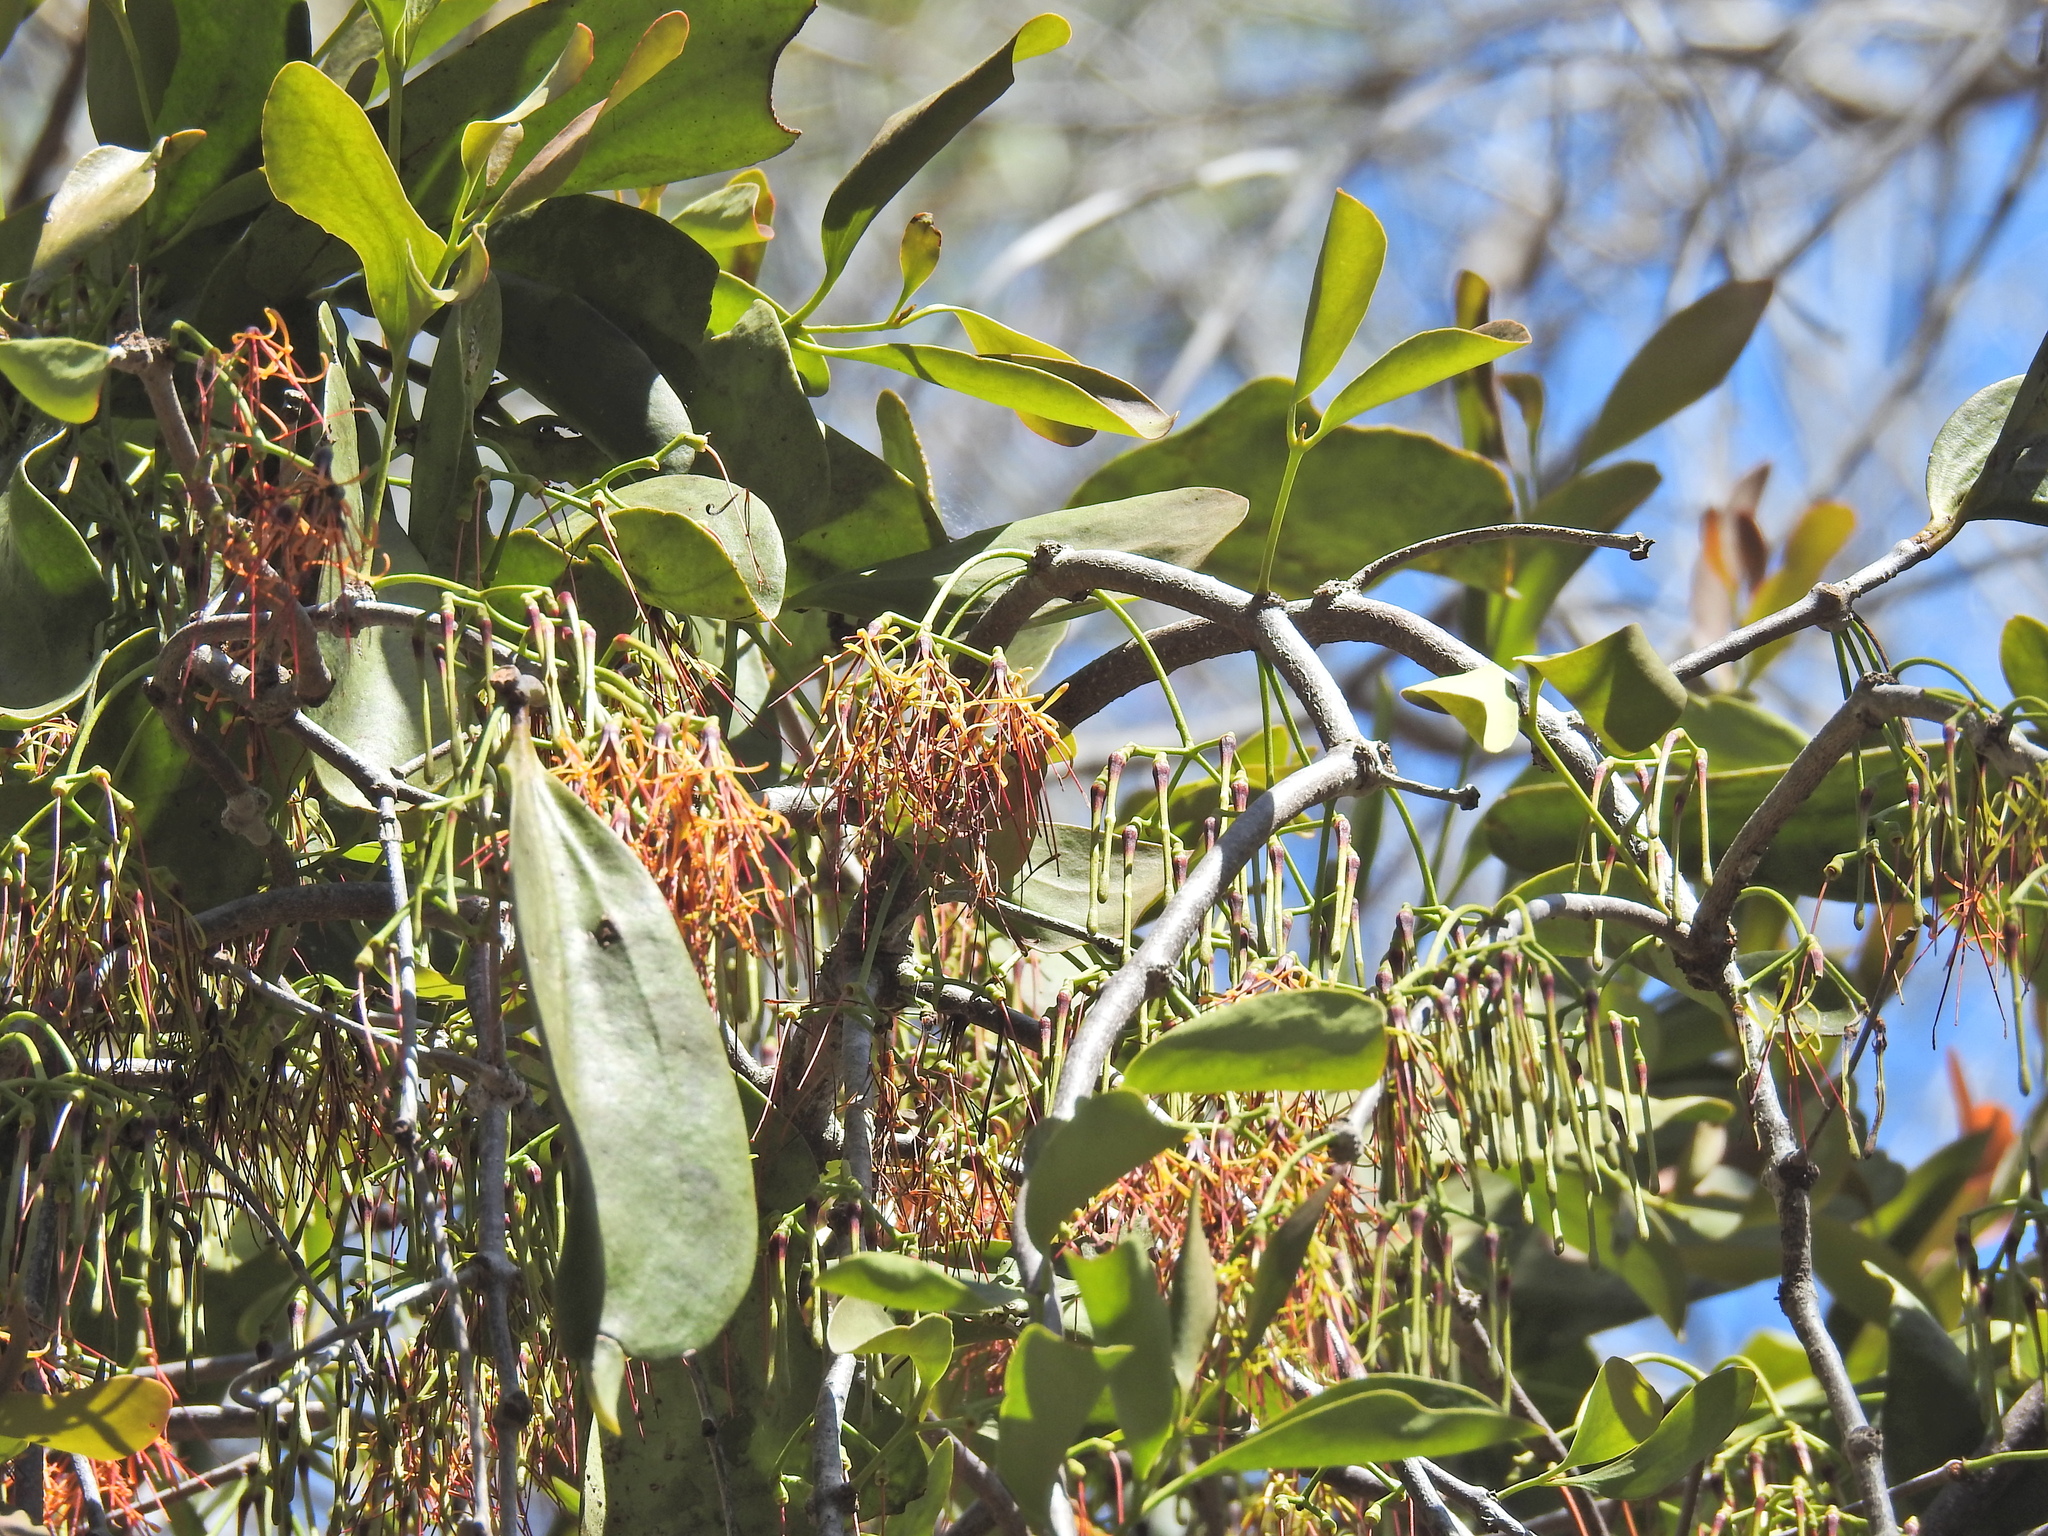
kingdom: Plantae
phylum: Tracheophyta
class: Magnoliopsida
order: Santalales
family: Loranthaceae
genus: Amyema
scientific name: Amyema congener
